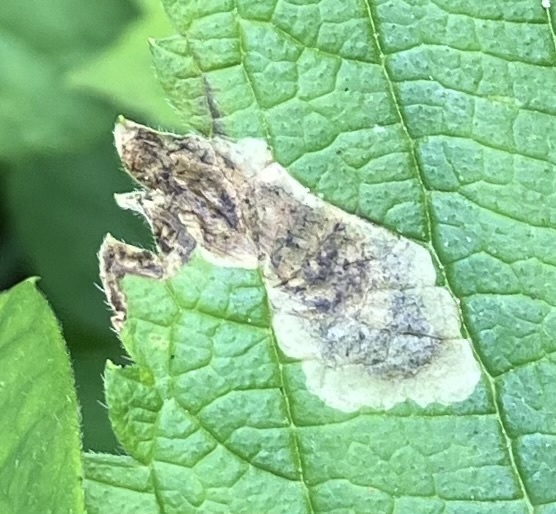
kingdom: Animalia
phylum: Arthropoda
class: Insecta
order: Diptera
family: Agromyzidae
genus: Calycomyza
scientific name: Calycomyza verbenae
